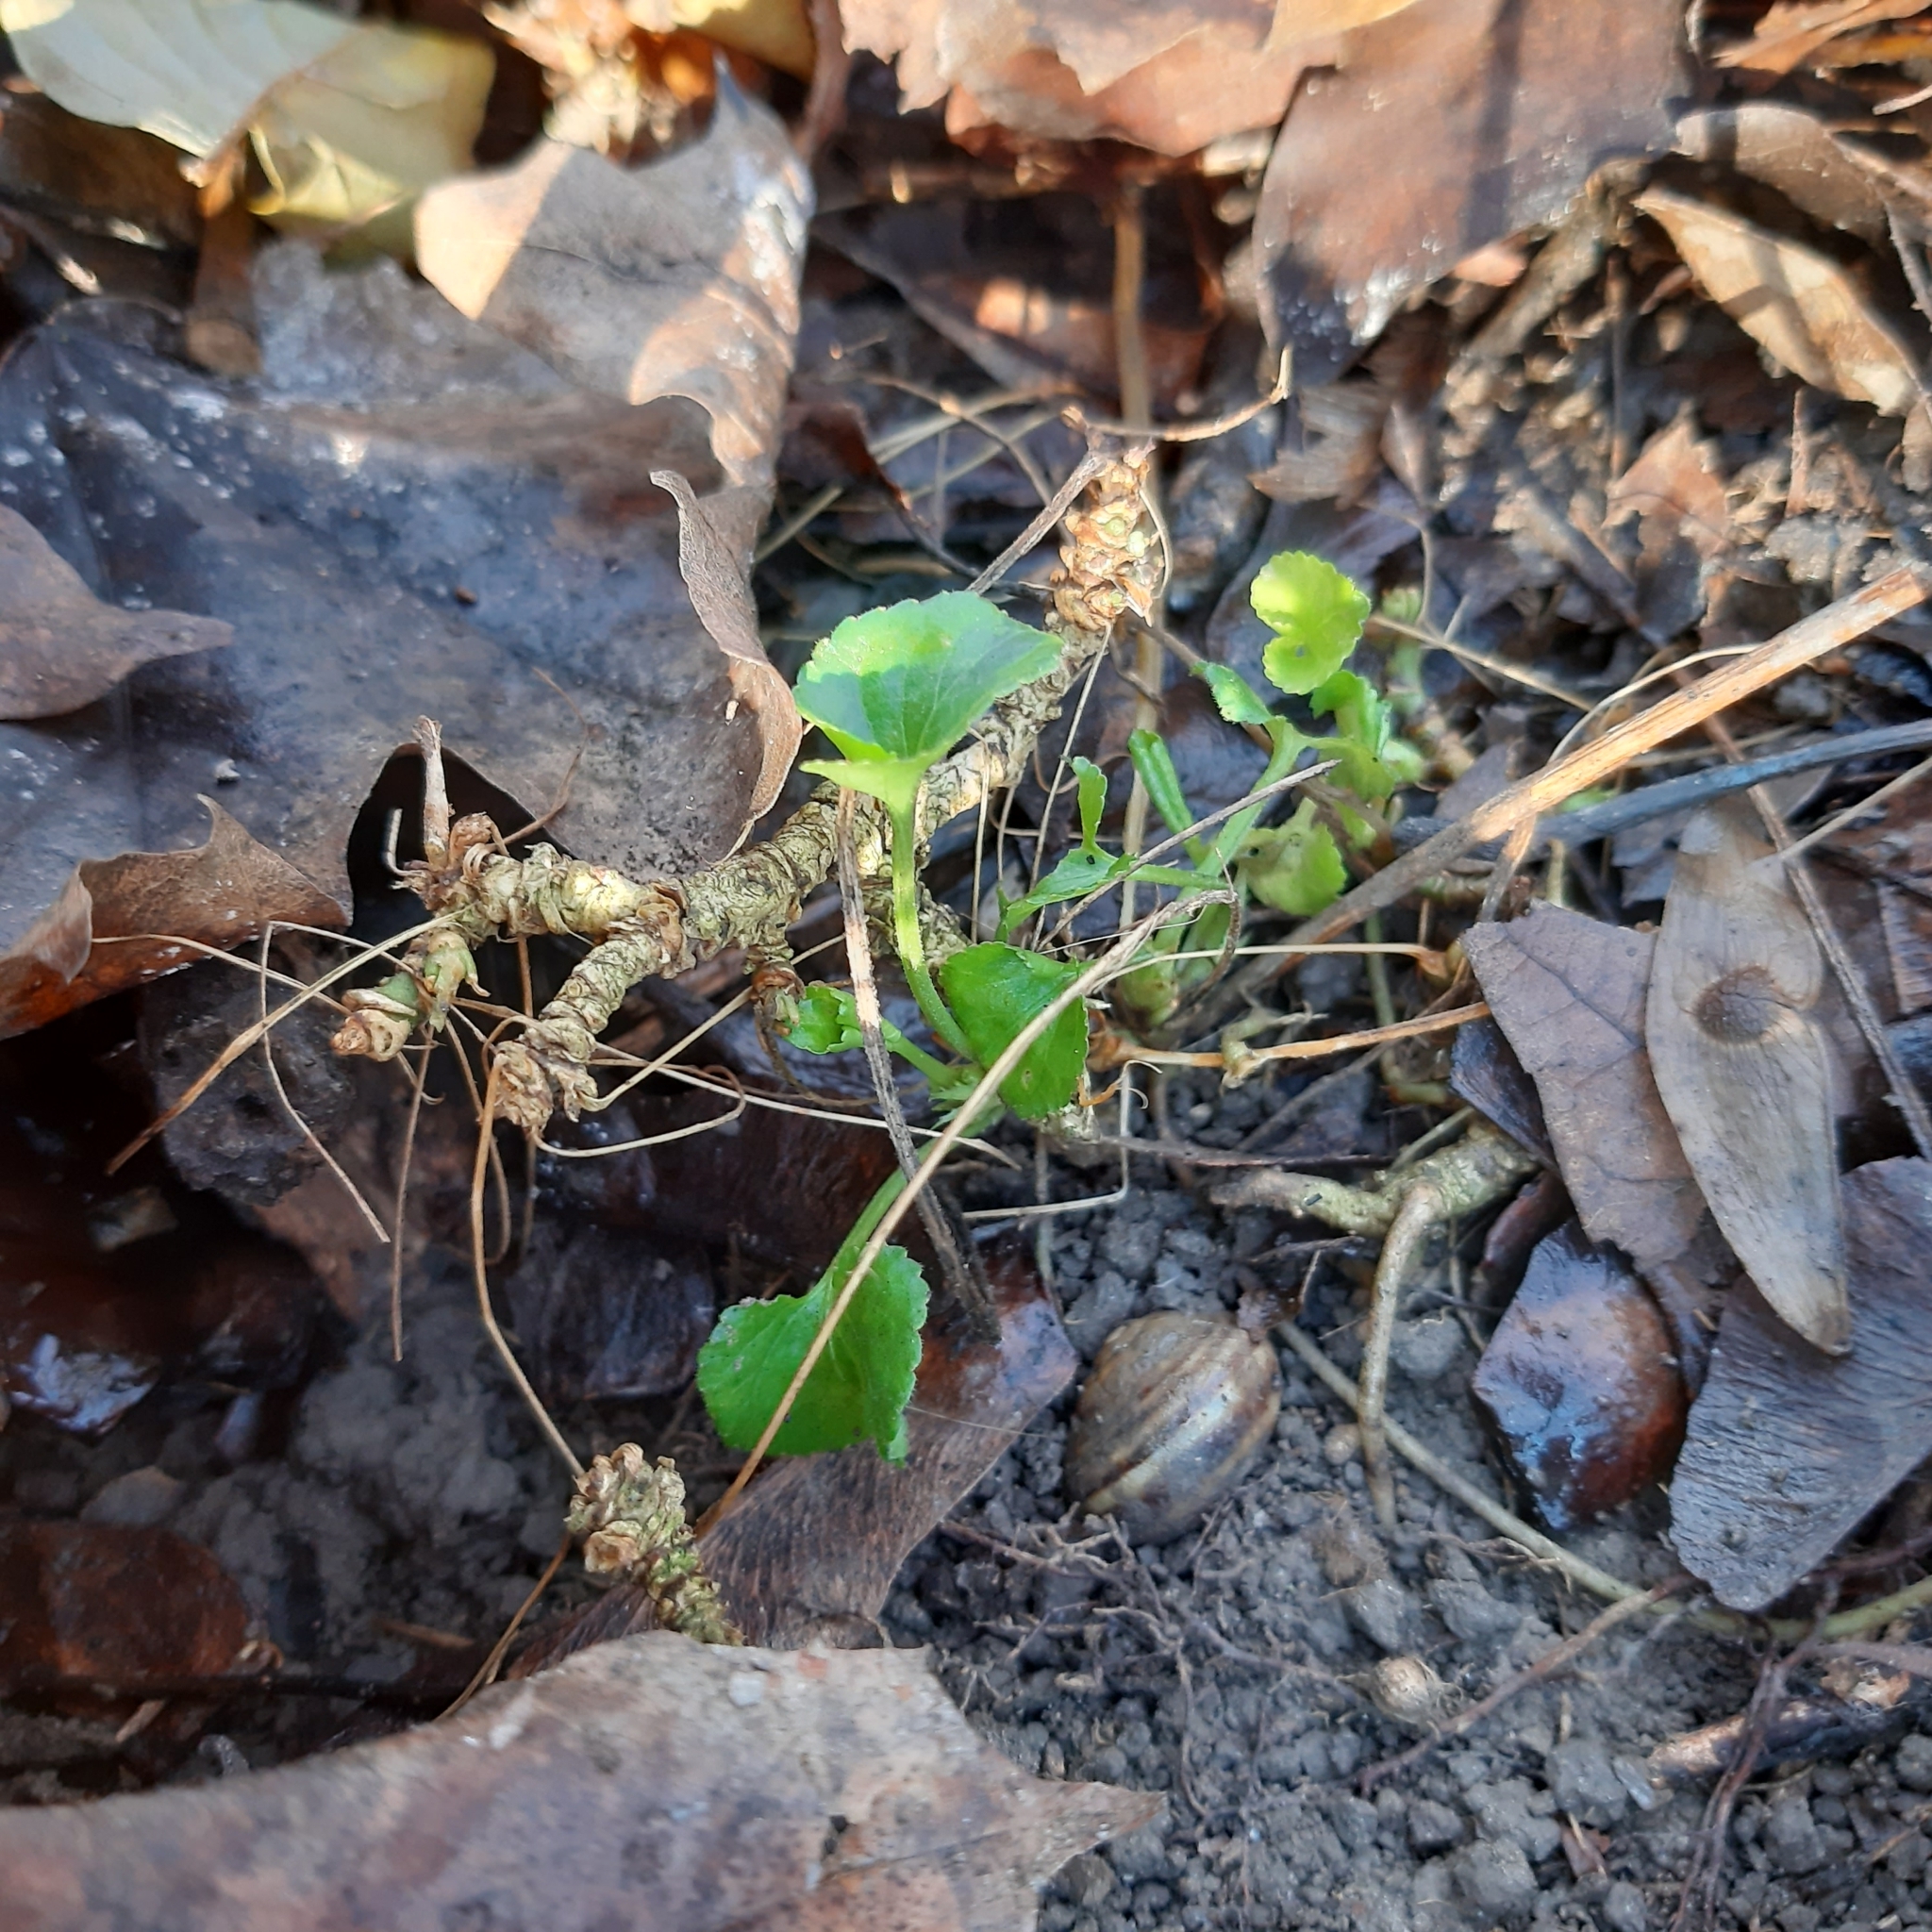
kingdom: Plantae
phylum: Tracheophyta
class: Magnoliopsida
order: Malpighiales
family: Violaceae
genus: Viola
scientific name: Viola
